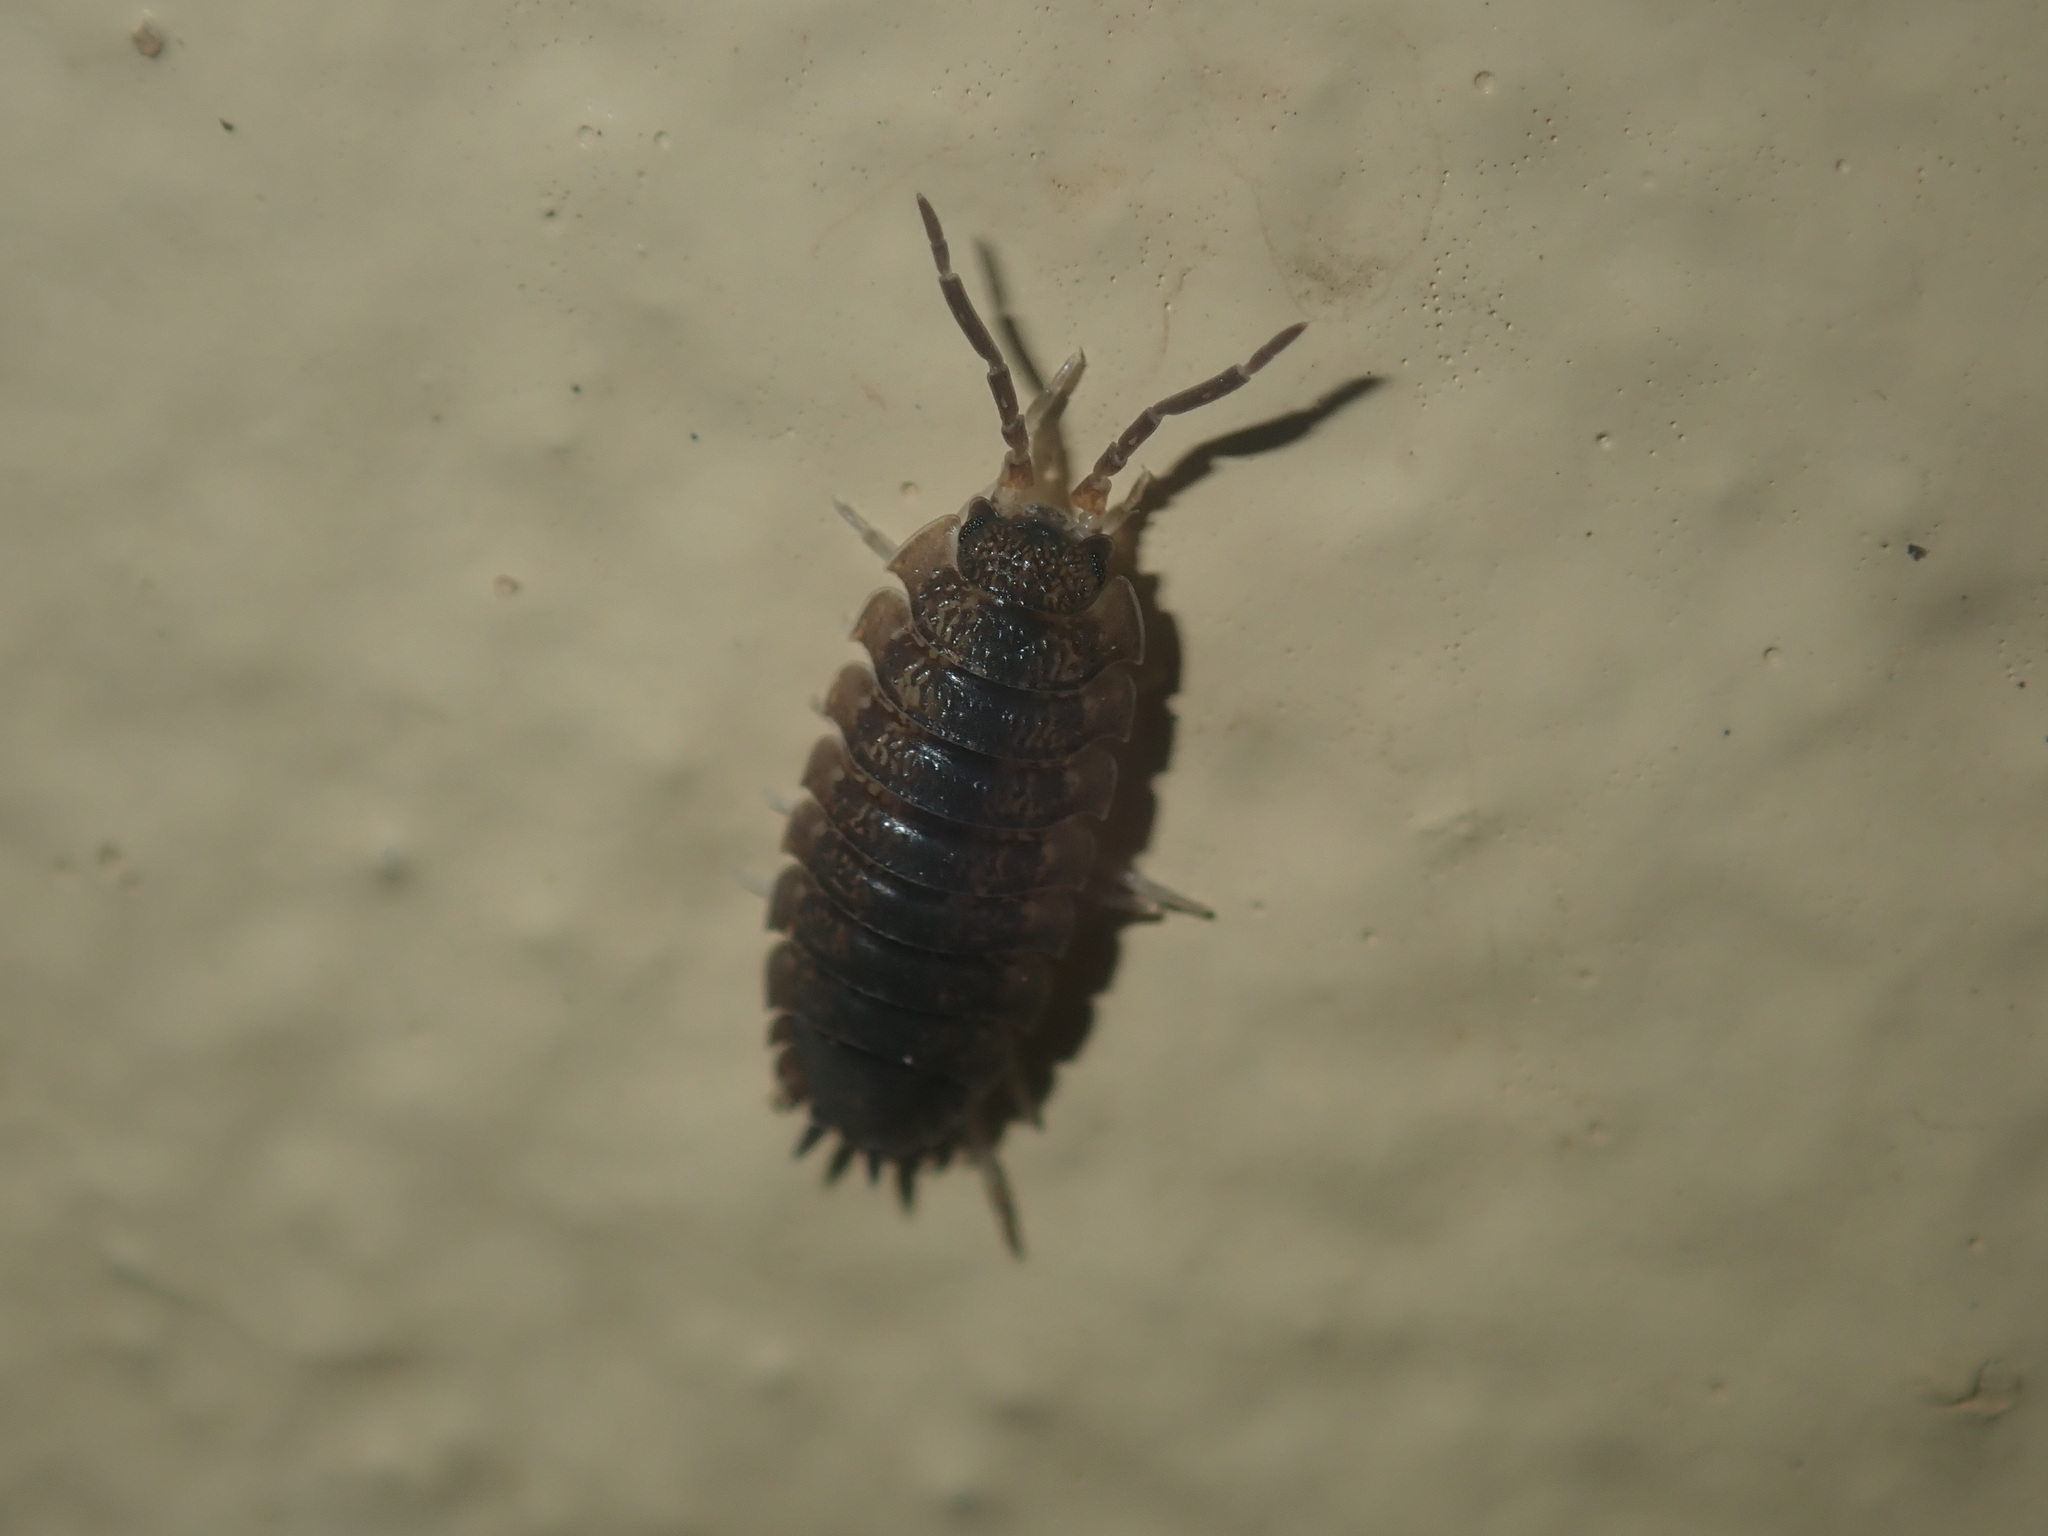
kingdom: Animalia
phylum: Arthropoda
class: Malacostraca
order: Isopoda
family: Porcellionidae
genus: Porcellio
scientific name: Porcellio scaber
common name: Common rough woodlouse
